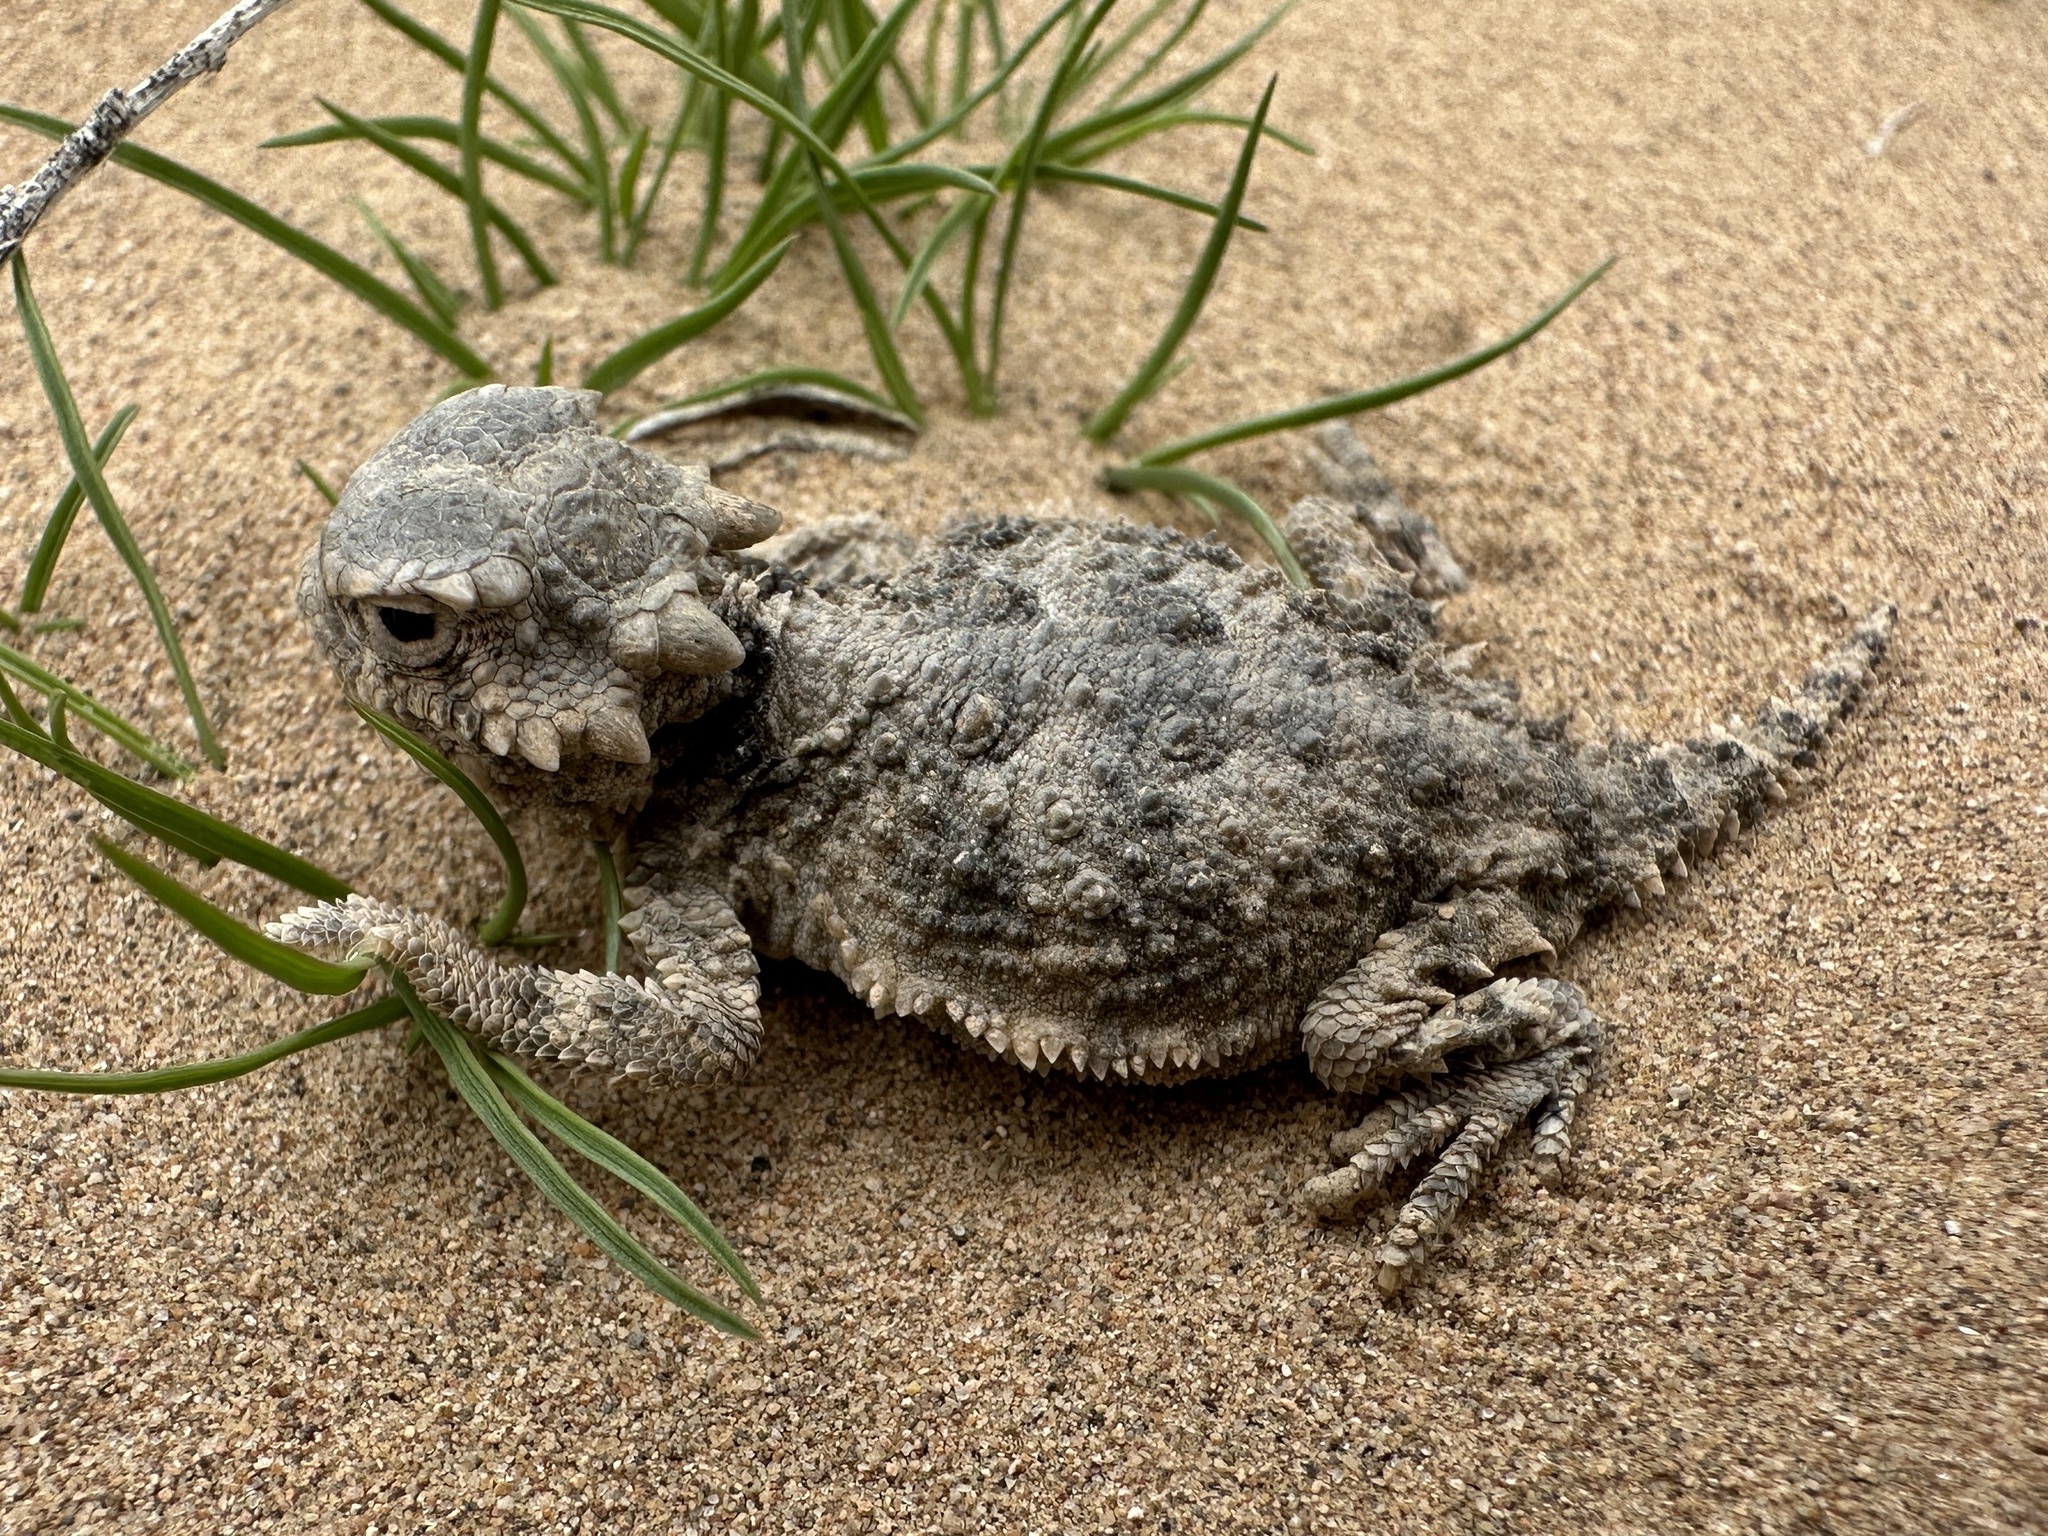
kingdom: Animalia
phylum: Chordata
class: Squamata
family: Phrynosomatidae
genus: Phrynosoma
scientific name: Phrynosoma platyrhinos
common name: Desert horned lizard
